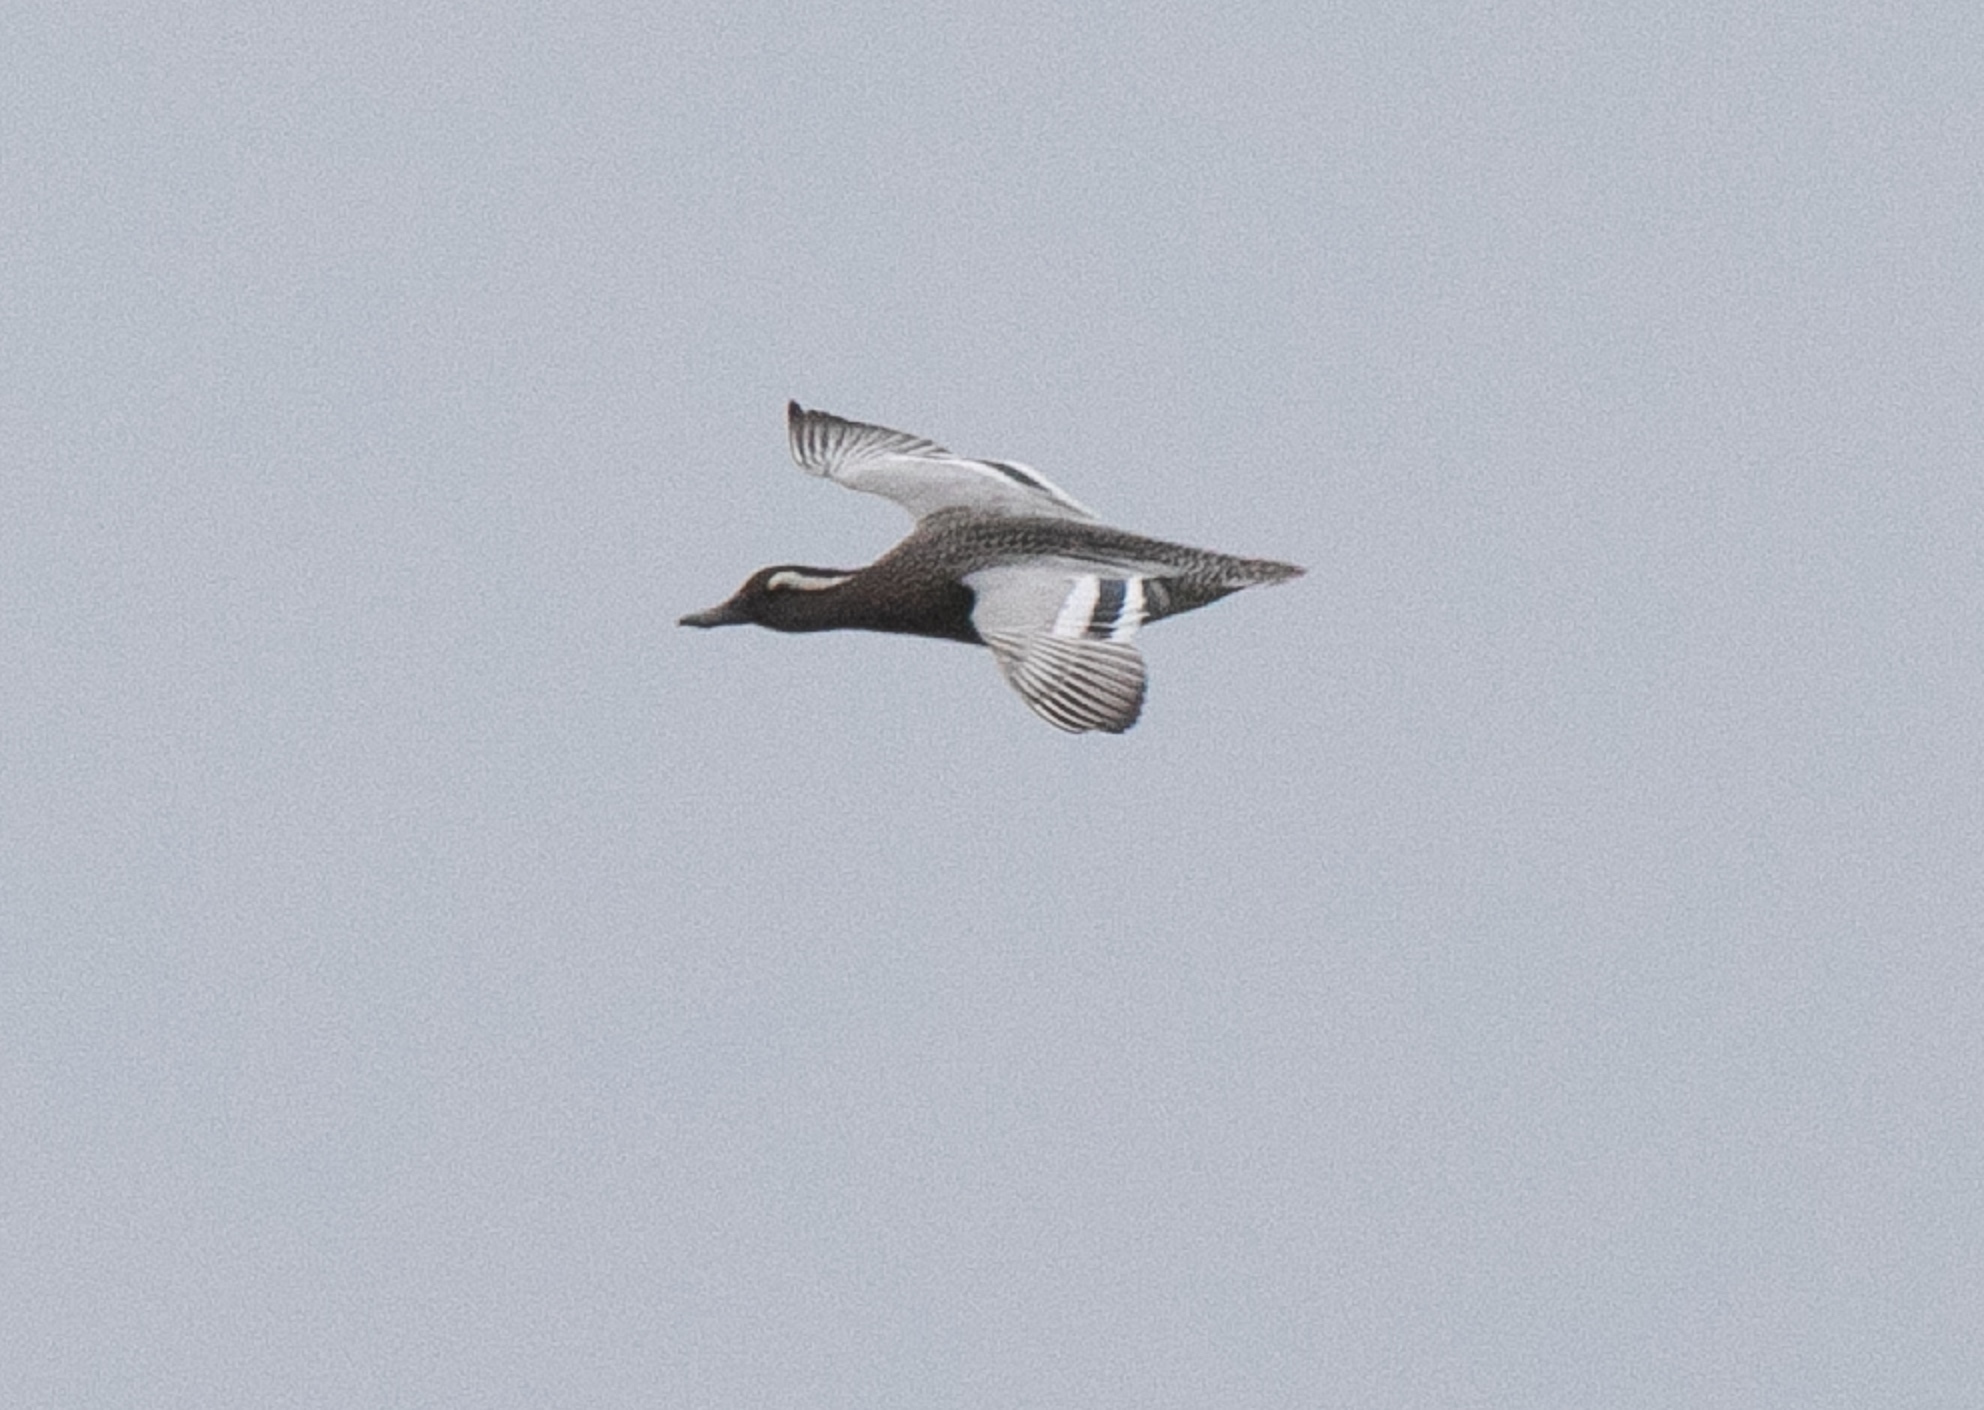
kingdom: Animalia
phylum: Chordata
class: Aves
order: Anseriformes
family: Anatidae
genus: Spatula
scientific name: Spatula querquedula
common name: Garganey
